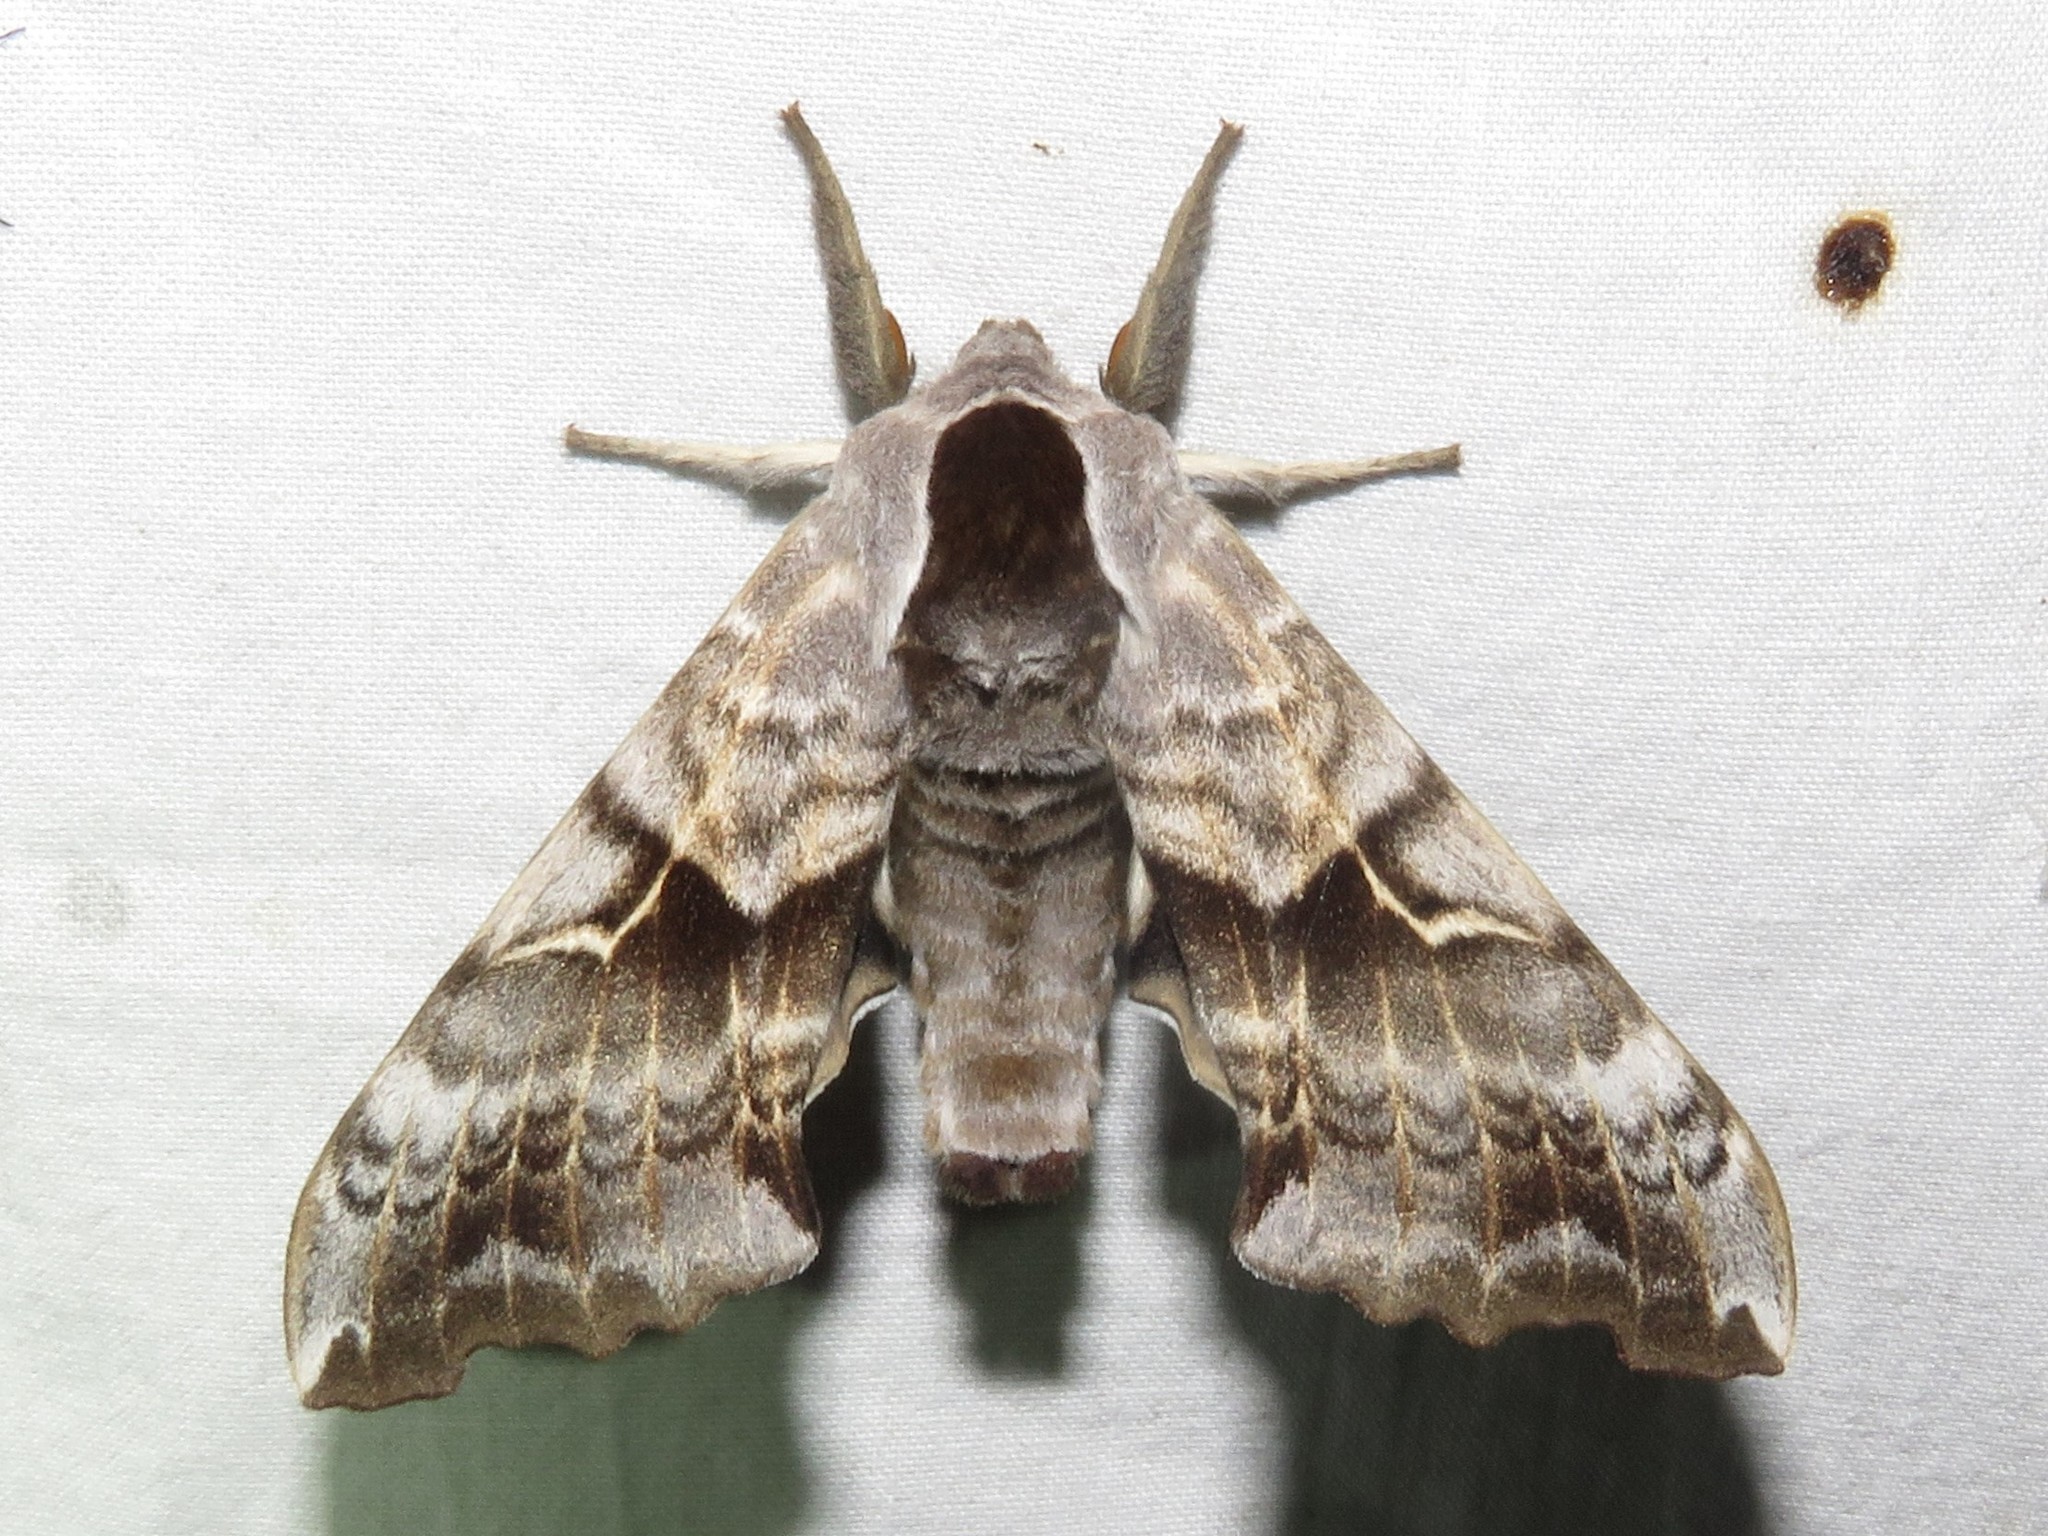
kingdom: Animalia
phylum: Arthropoda
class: Insecta
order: Lepidoptera
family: Sphingidae
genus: Smerinthus
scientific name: Smerinthus cerisyi
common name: Cerisy's sphinx moth
